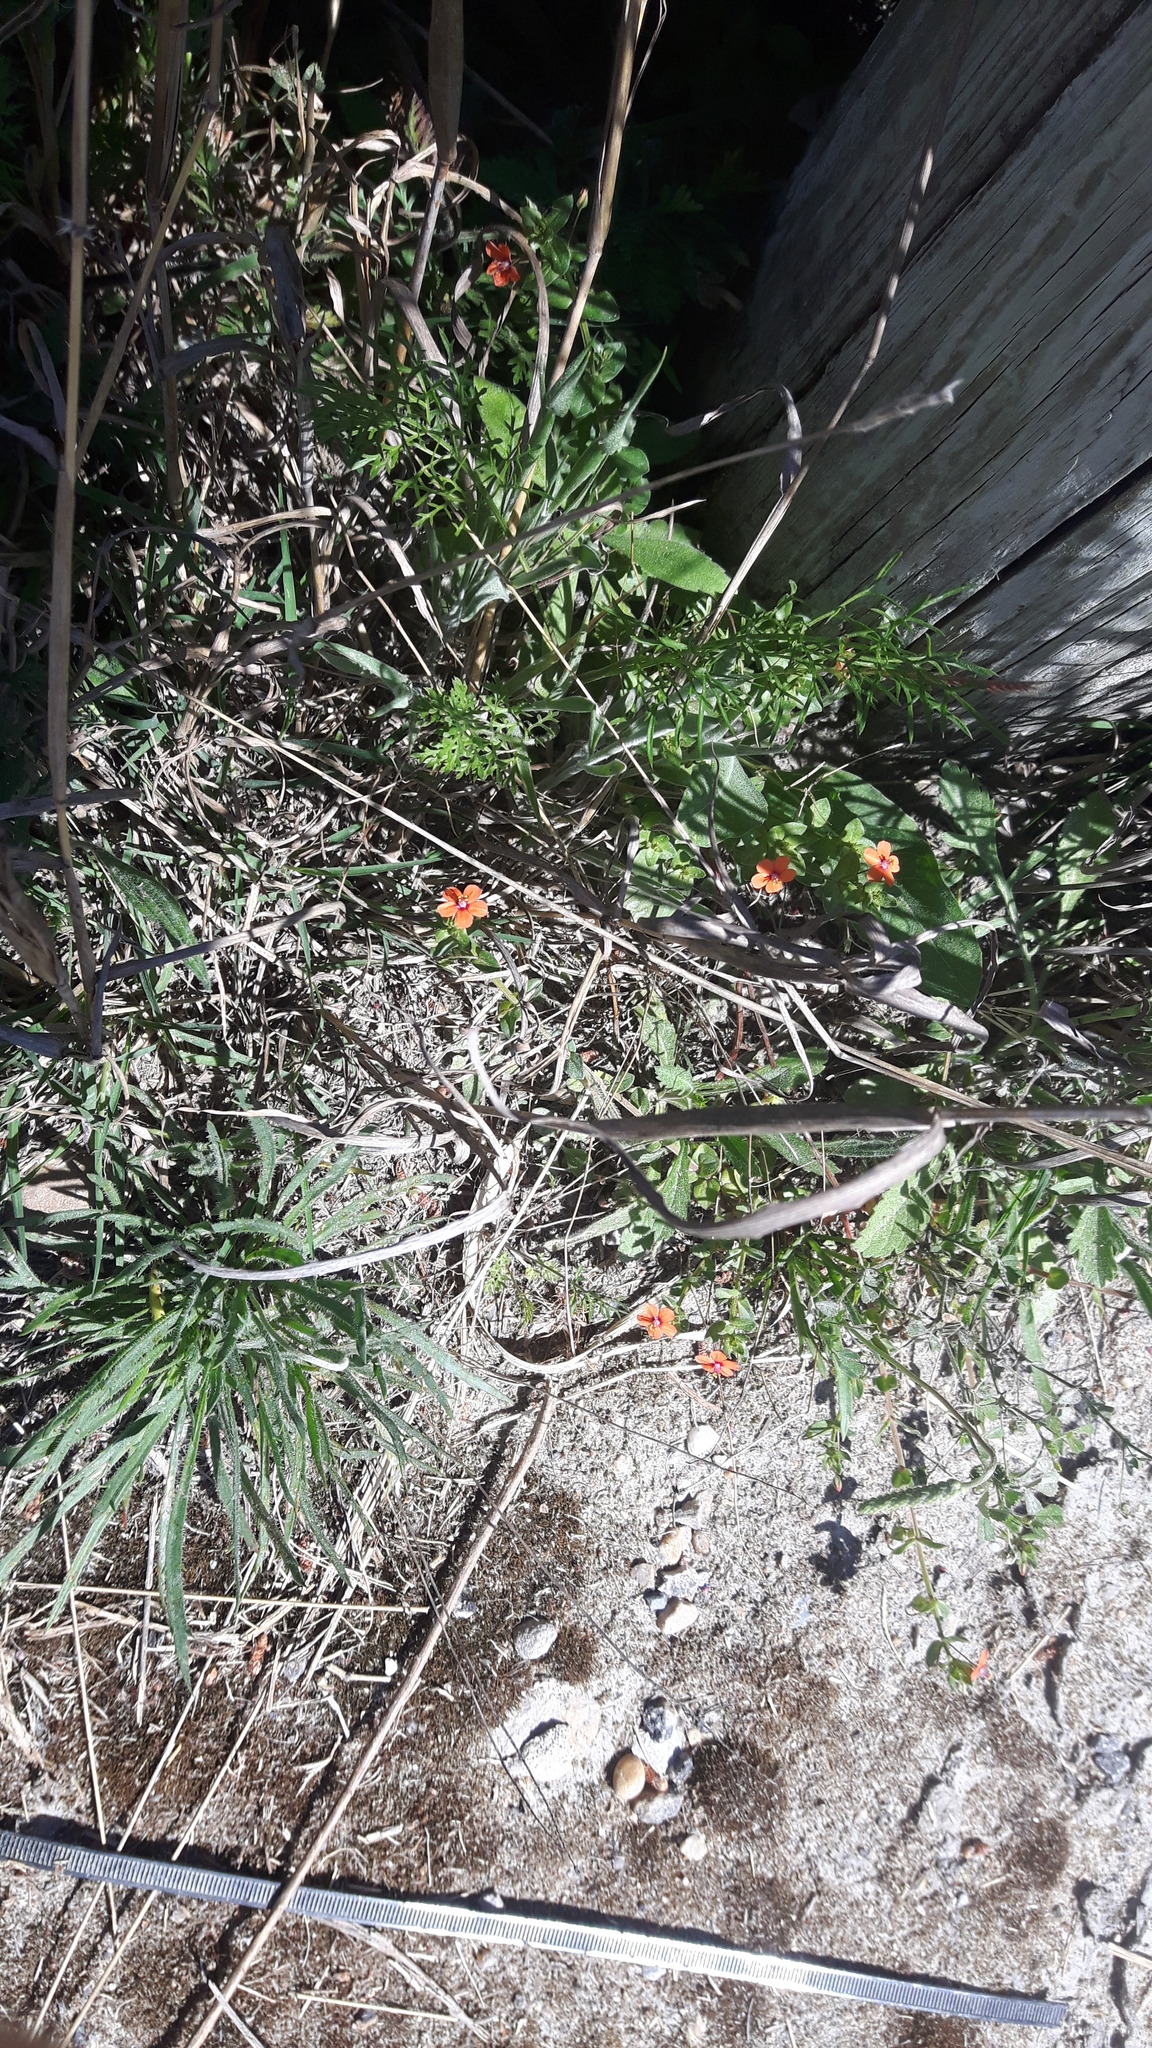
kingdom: Plantae
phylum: Tracheophyta
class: Magnoliopsida
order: Ericales
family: Primulaceae
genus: Lysimachia
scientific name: Lysimachia arvensis
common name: Scarlet pimpernel
